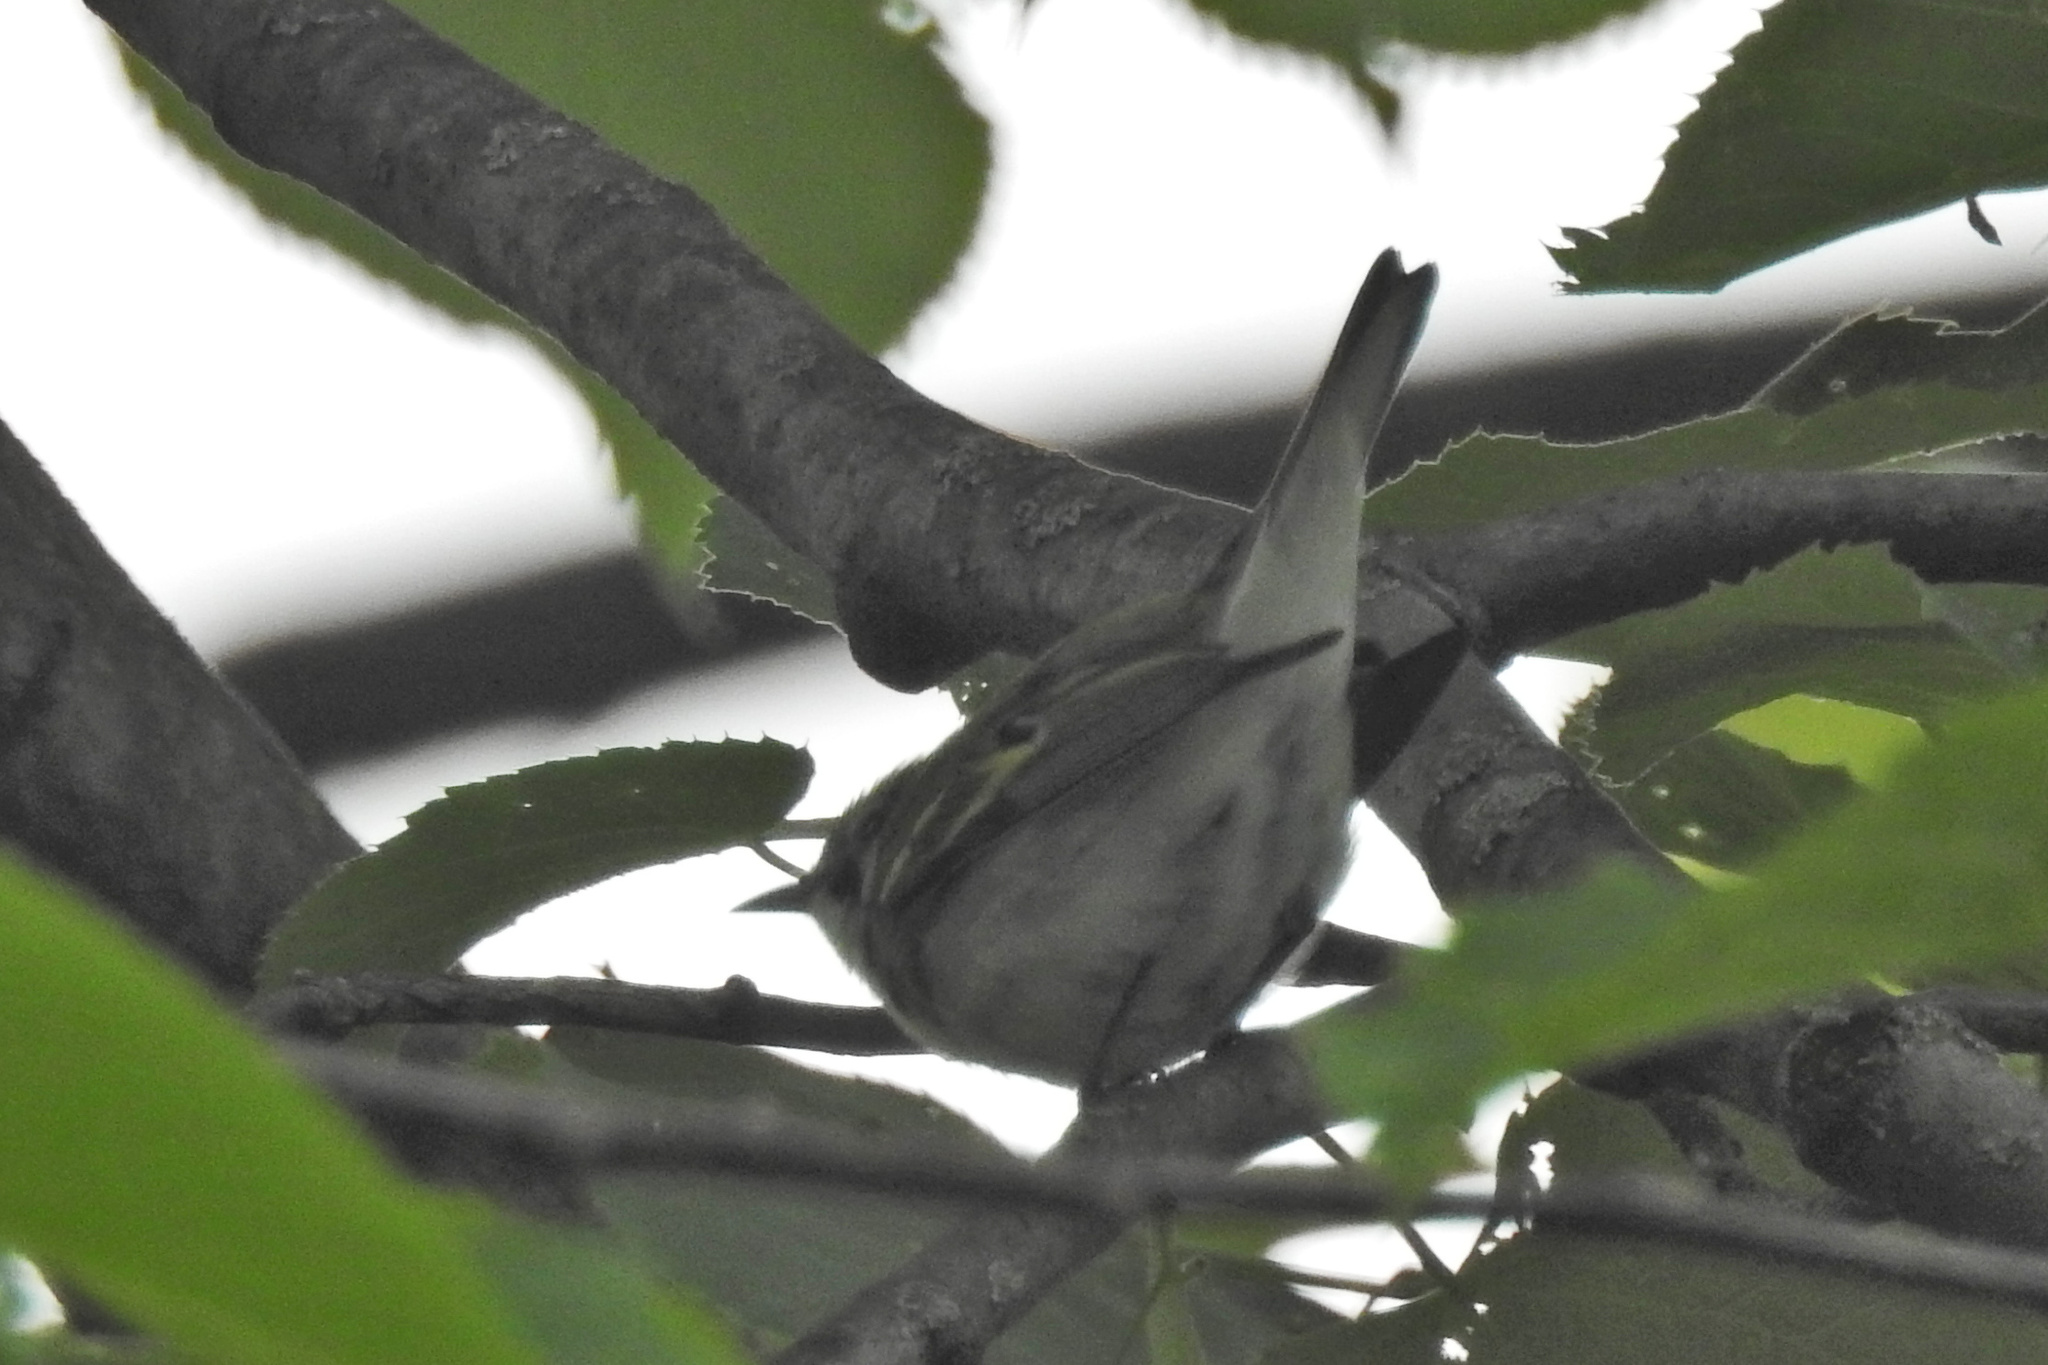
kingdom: Animalia
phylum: Chordata
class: Aves
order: Passeriformes
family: Parulidae
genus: Setophaga
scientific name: Setophaga pensylvanica
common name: Chestnut-sided warbler
